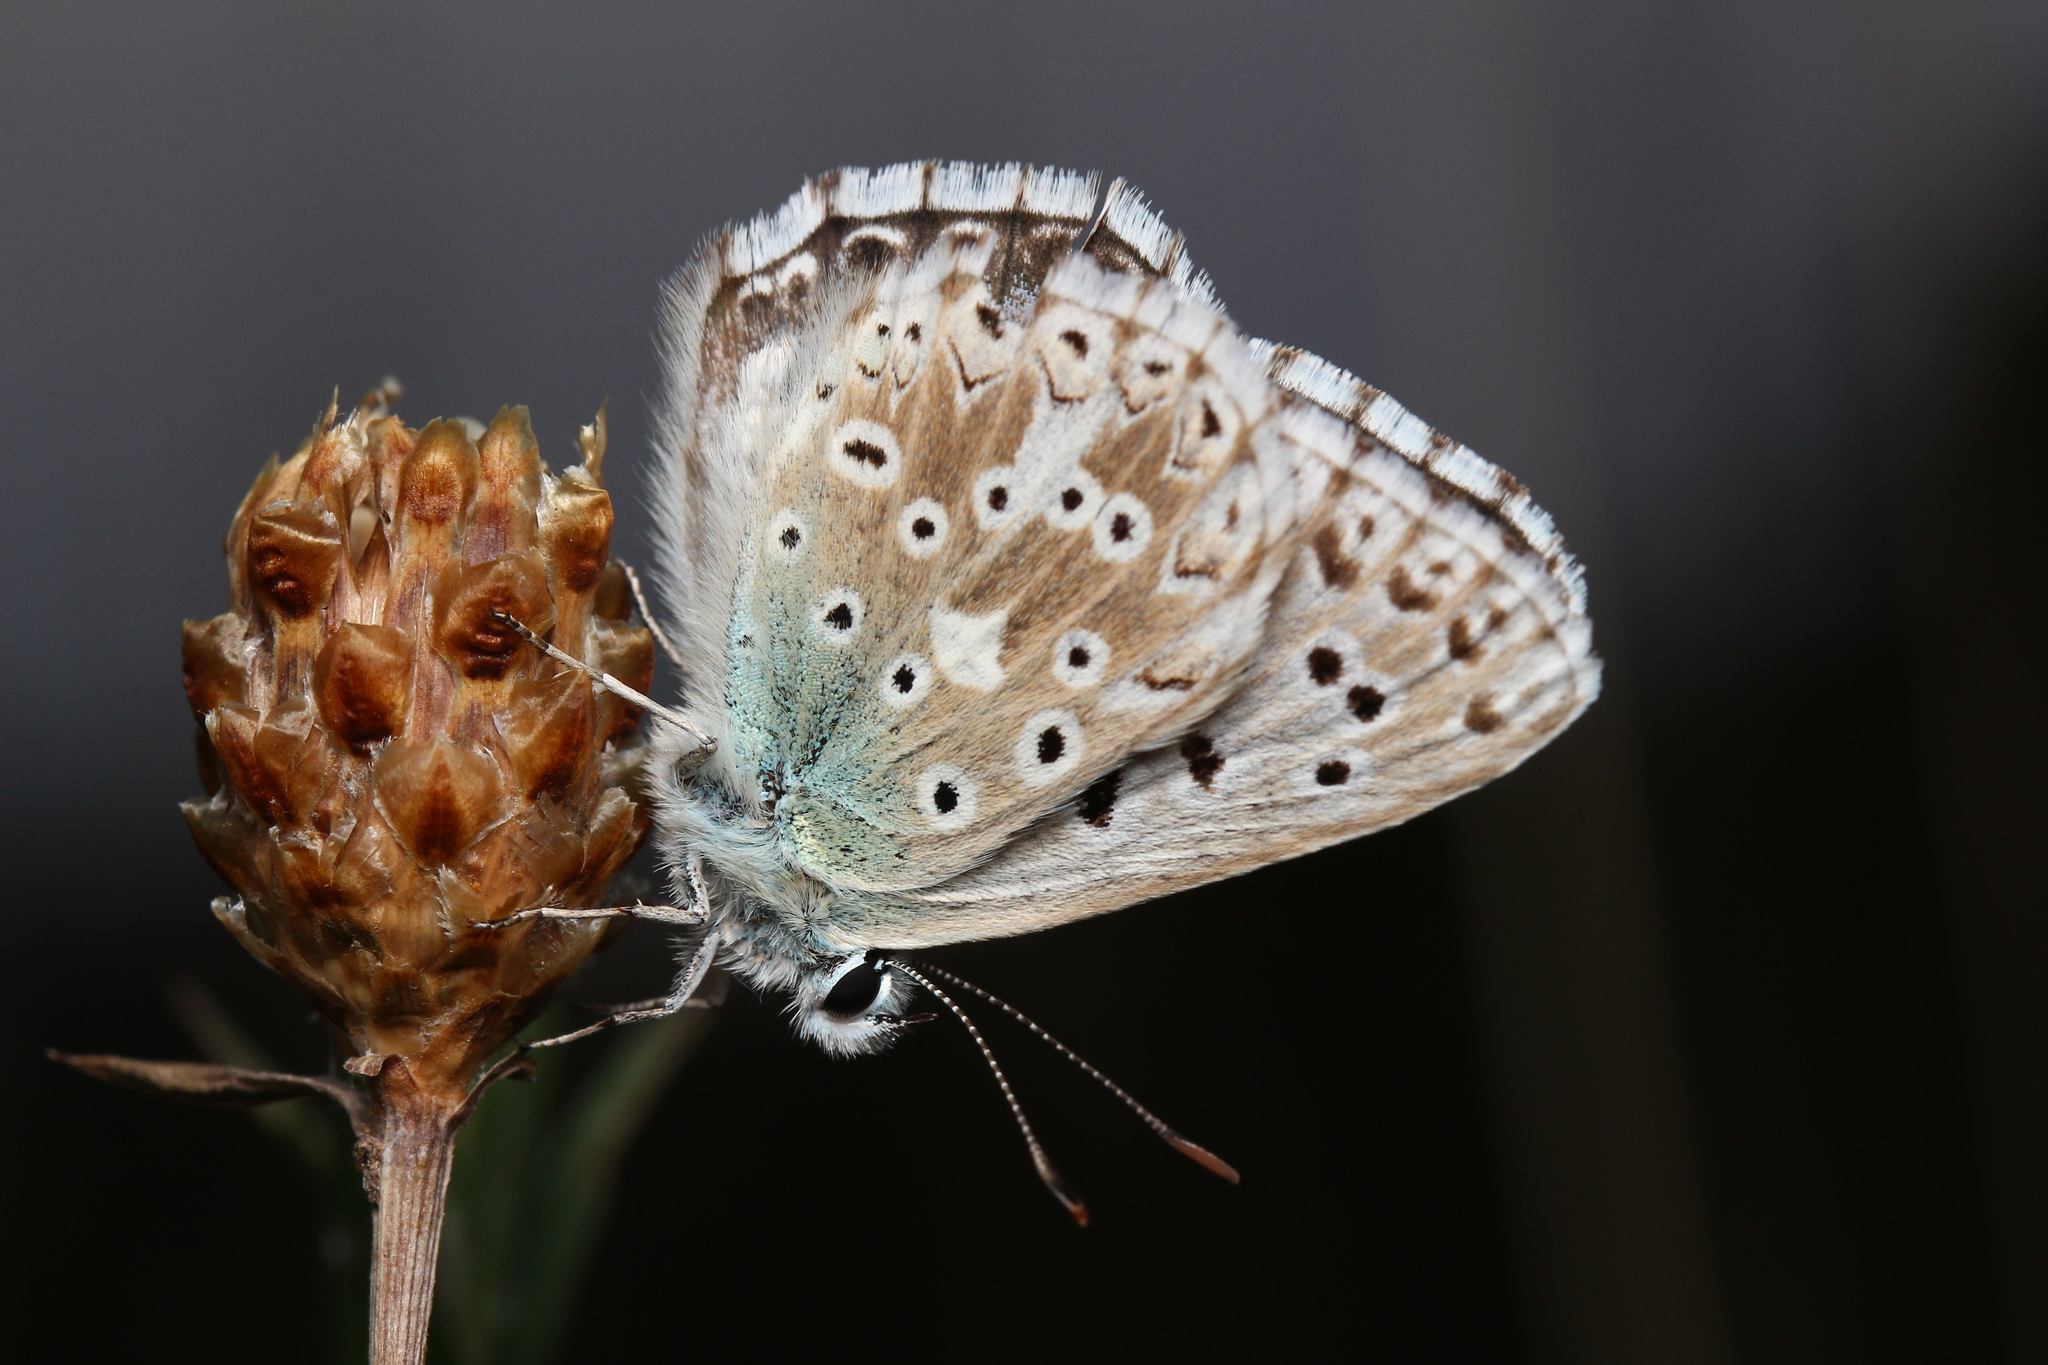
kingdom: Animalia
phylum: Arthropoda
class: Insecta
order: Lepidoptera
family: Lycaenidae
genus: Lysandra
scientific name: Lysandra coridon
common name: Chalkhill blue
